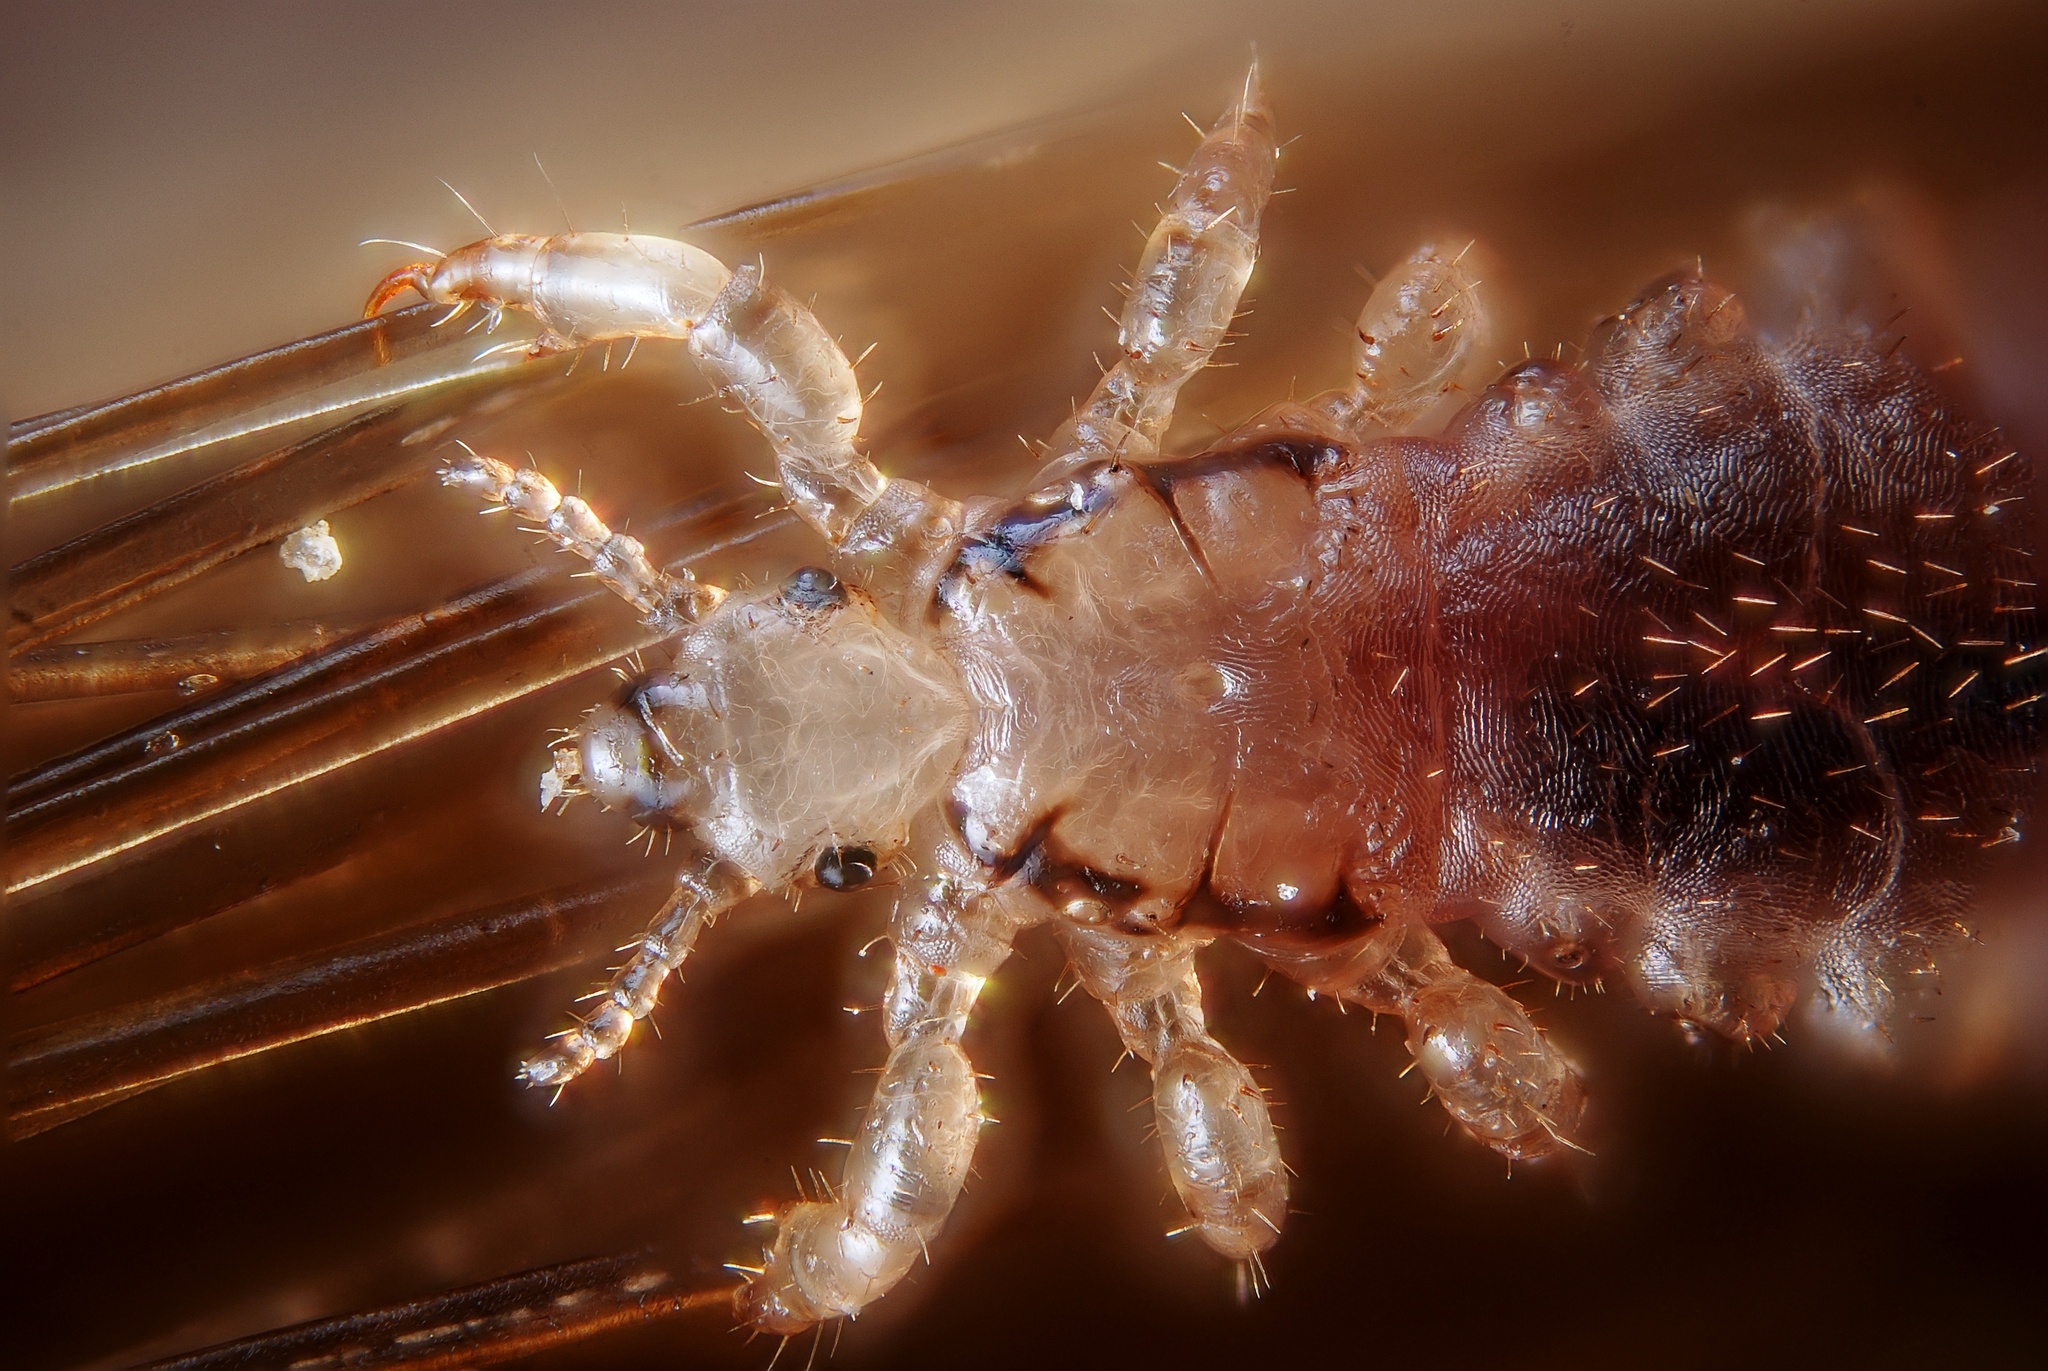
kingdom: Animalia
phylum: Arthropoda
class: Insecta
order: Psocodea
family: Pediculidae
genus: Pediculus
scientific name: Pediculus humanus
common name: Body louse
